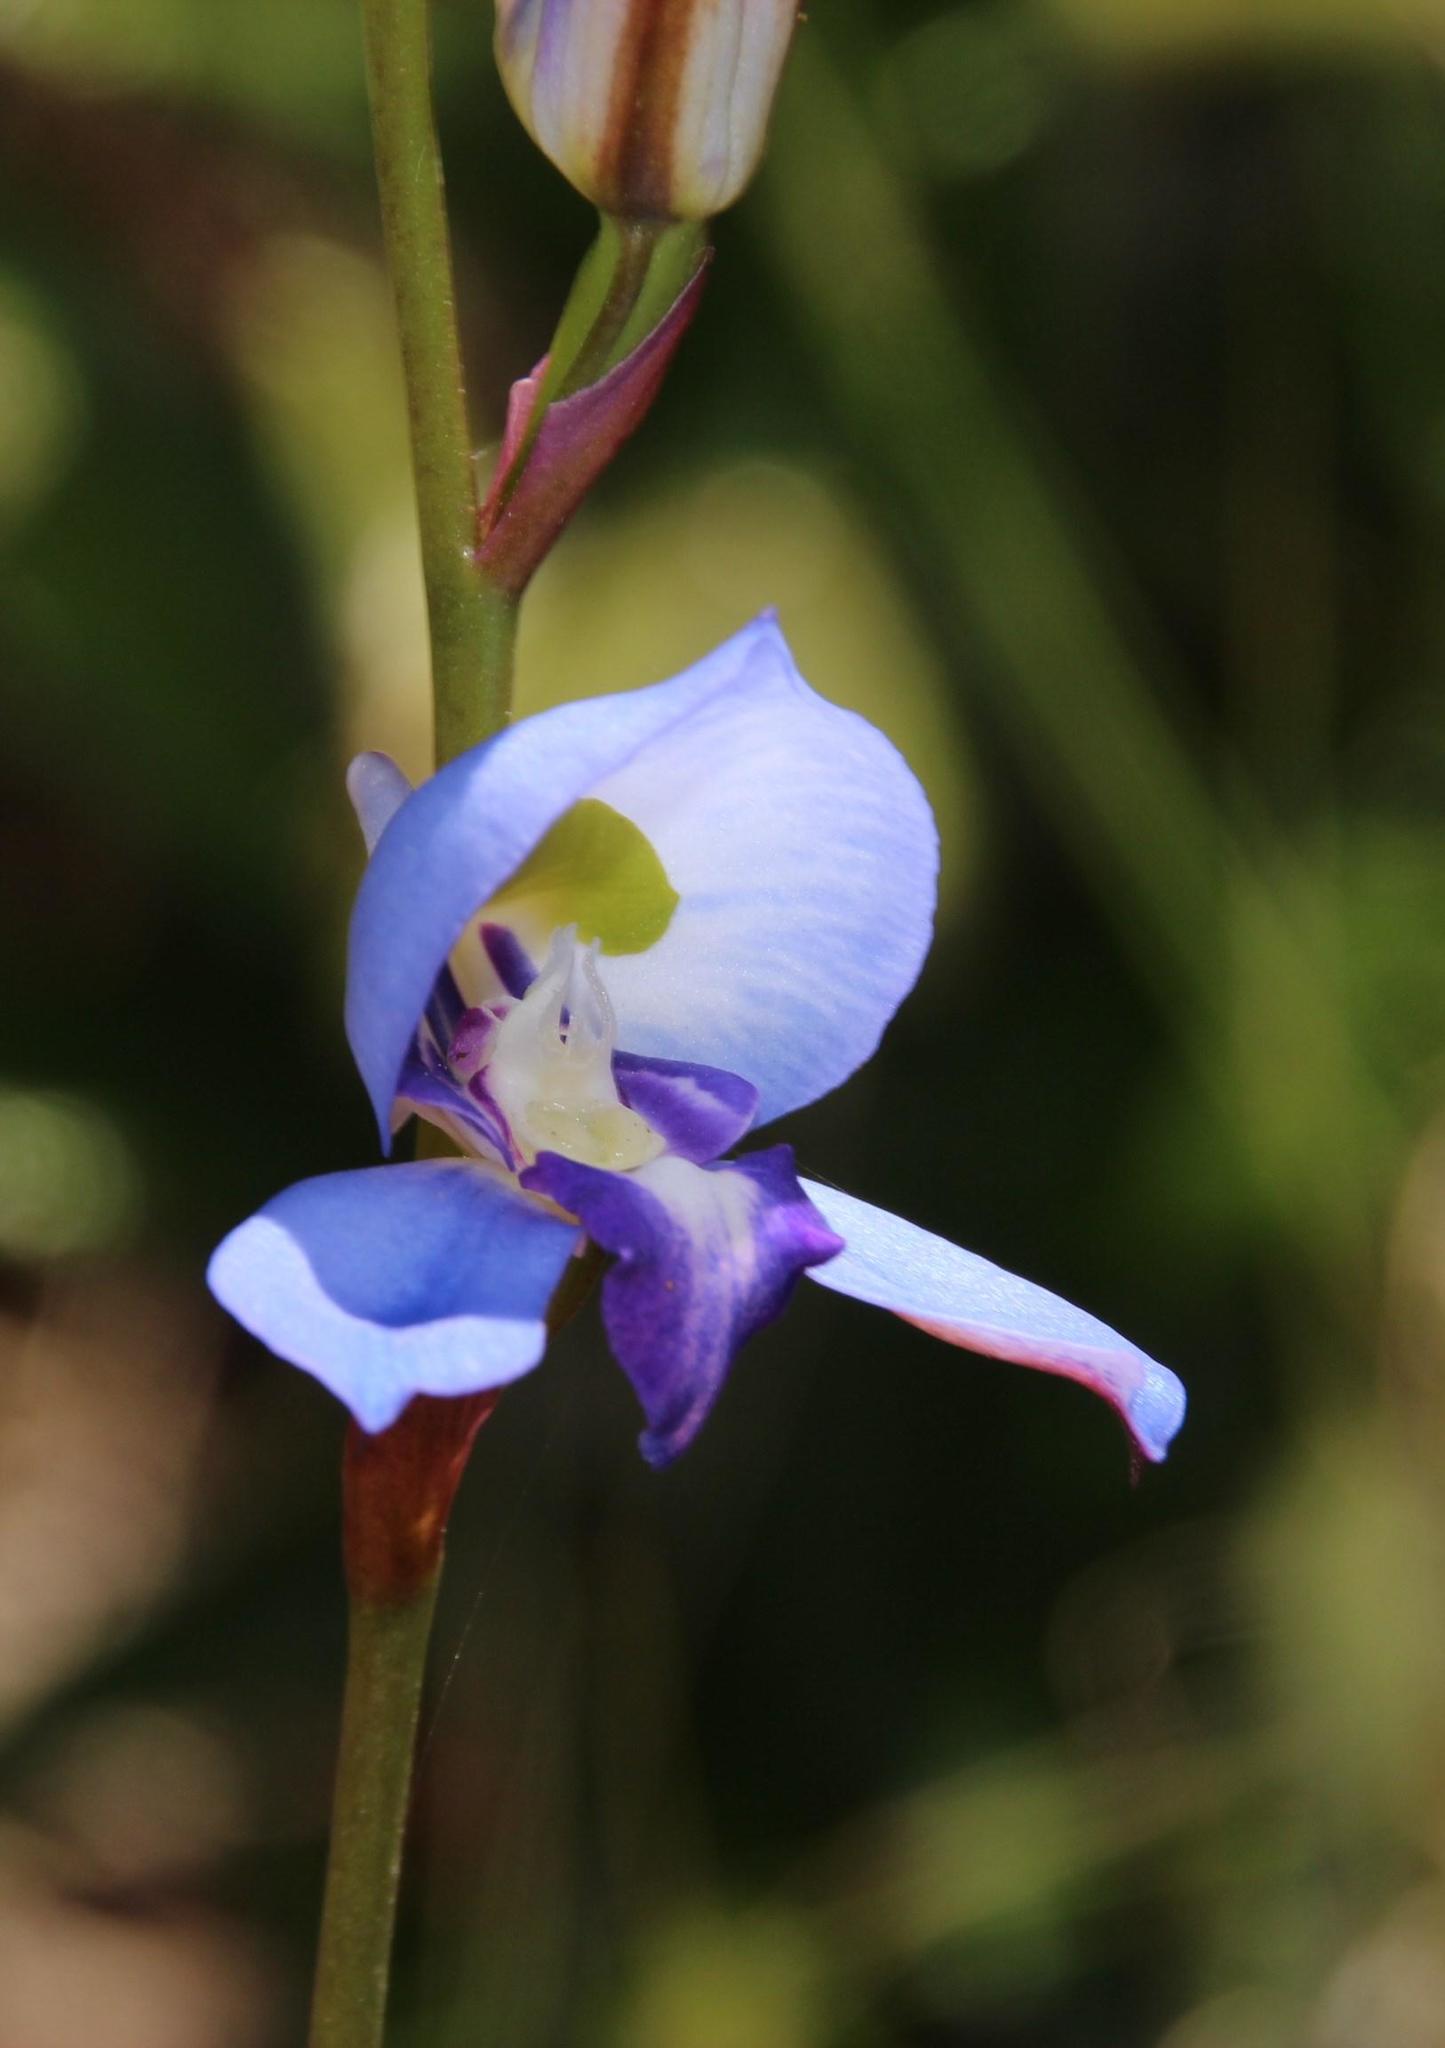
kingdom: Plantae
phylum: Tracheophyta
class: Liliopsida
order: Asparagales
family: Orchidaceae
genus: Disa
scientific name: Disa graminifolia
